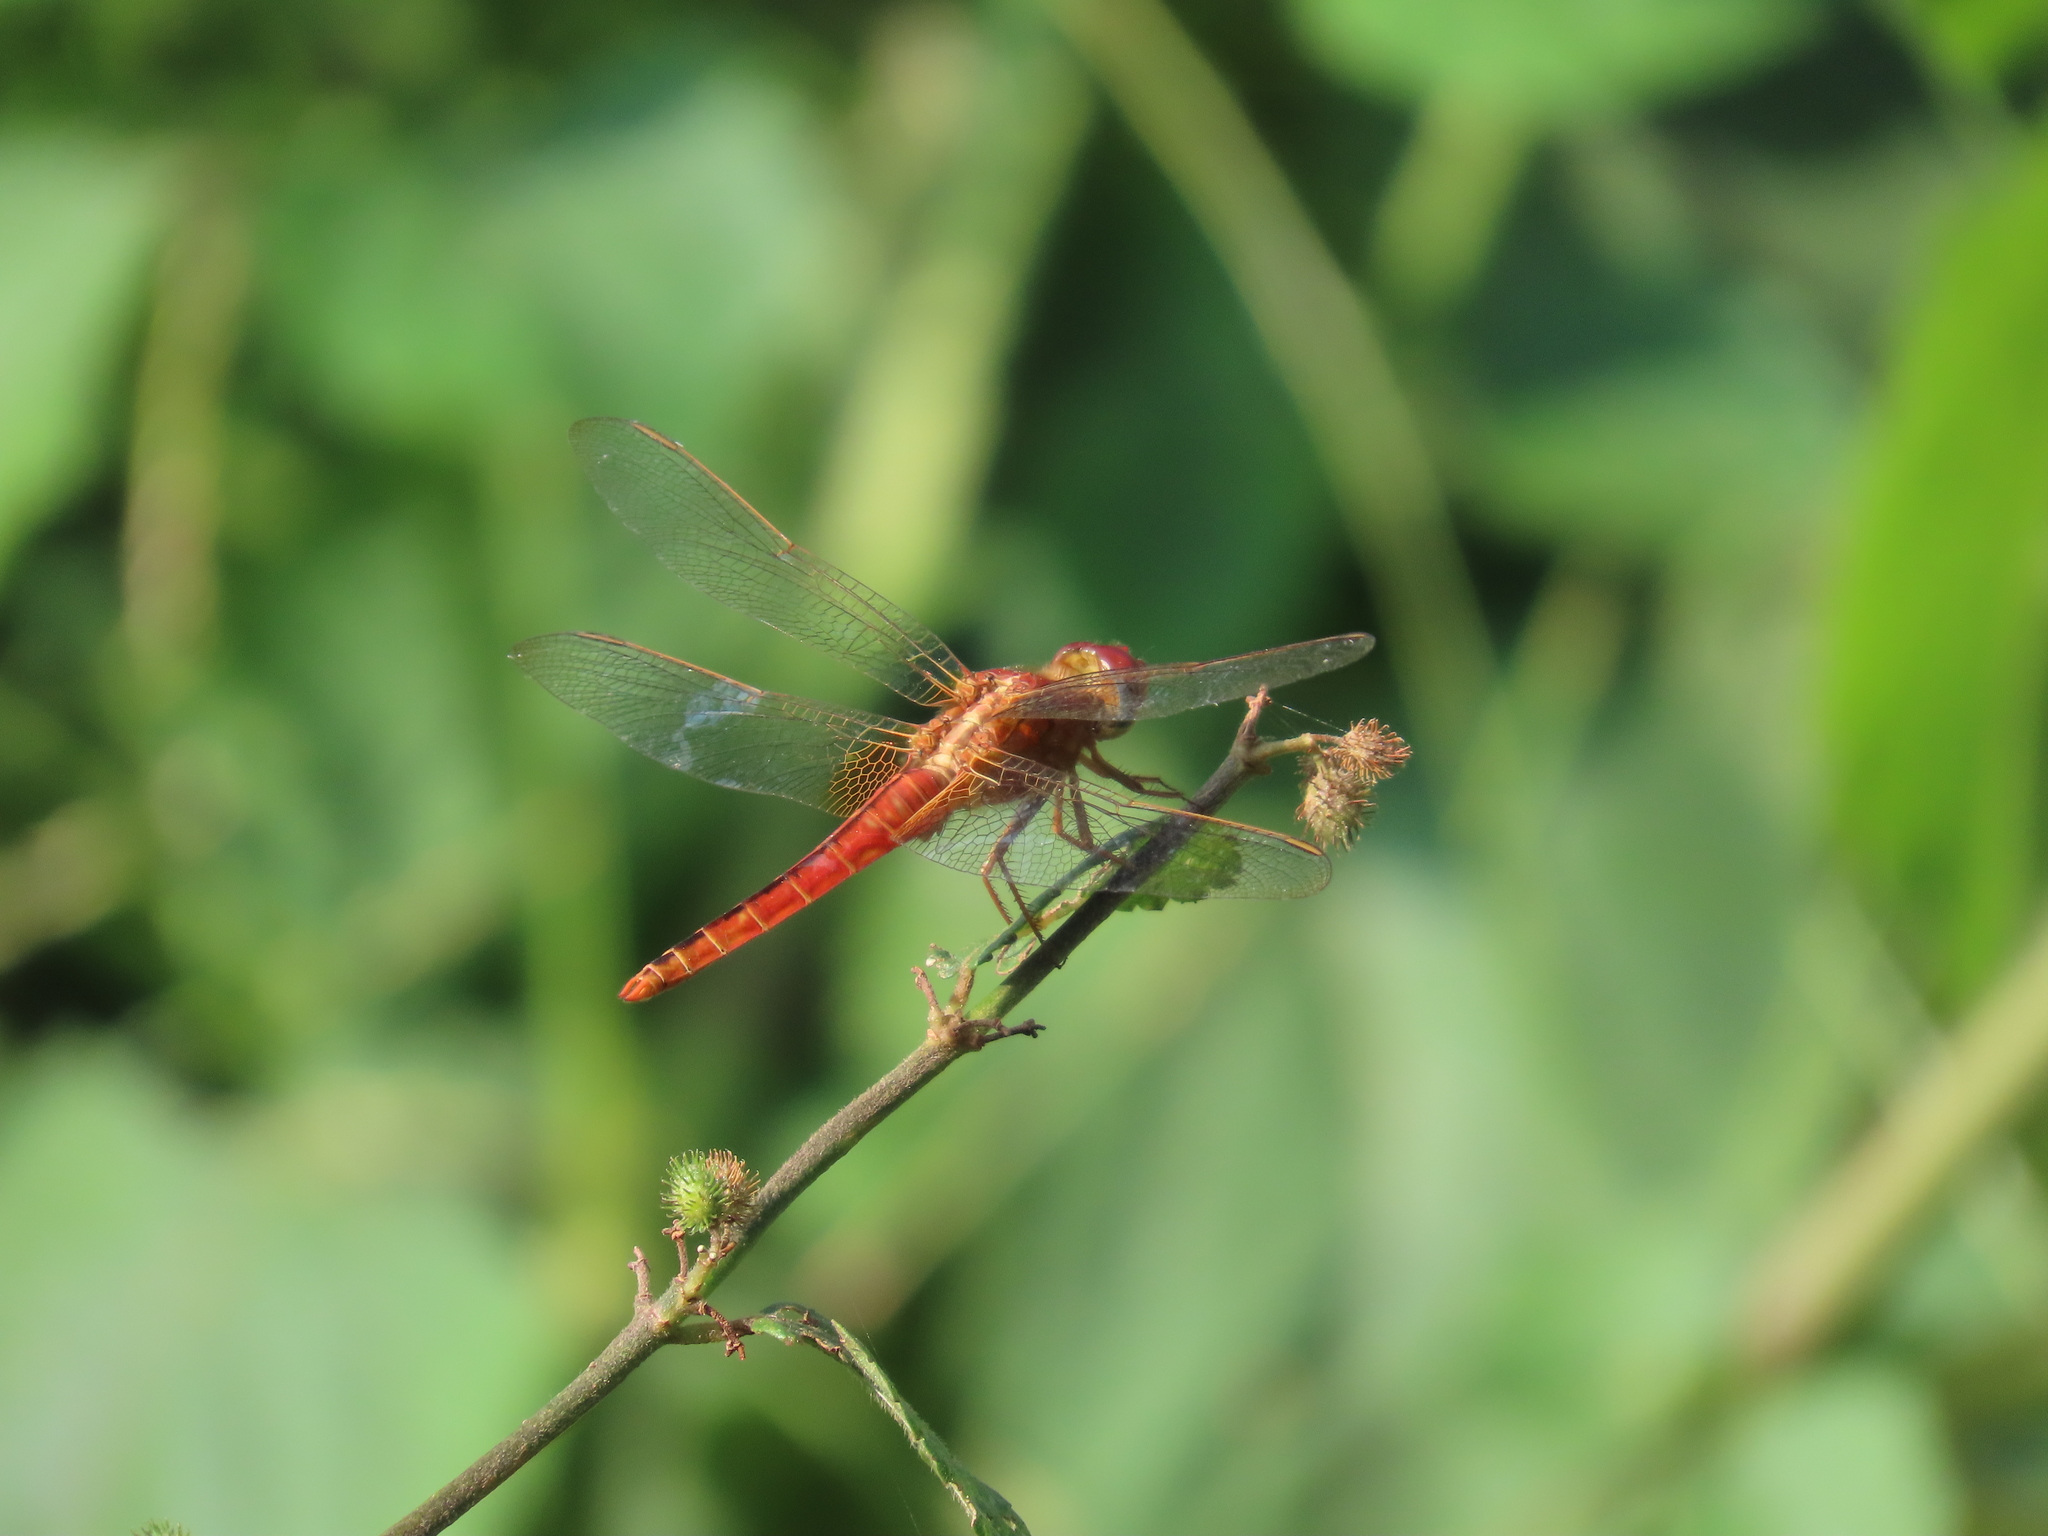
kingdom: Animalia
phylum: Arthropoda
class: Insecta
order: Odonata
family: Libellulidae
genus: Crocothemis
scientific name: Crocothemis servilia
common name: Scarlet skimmer
